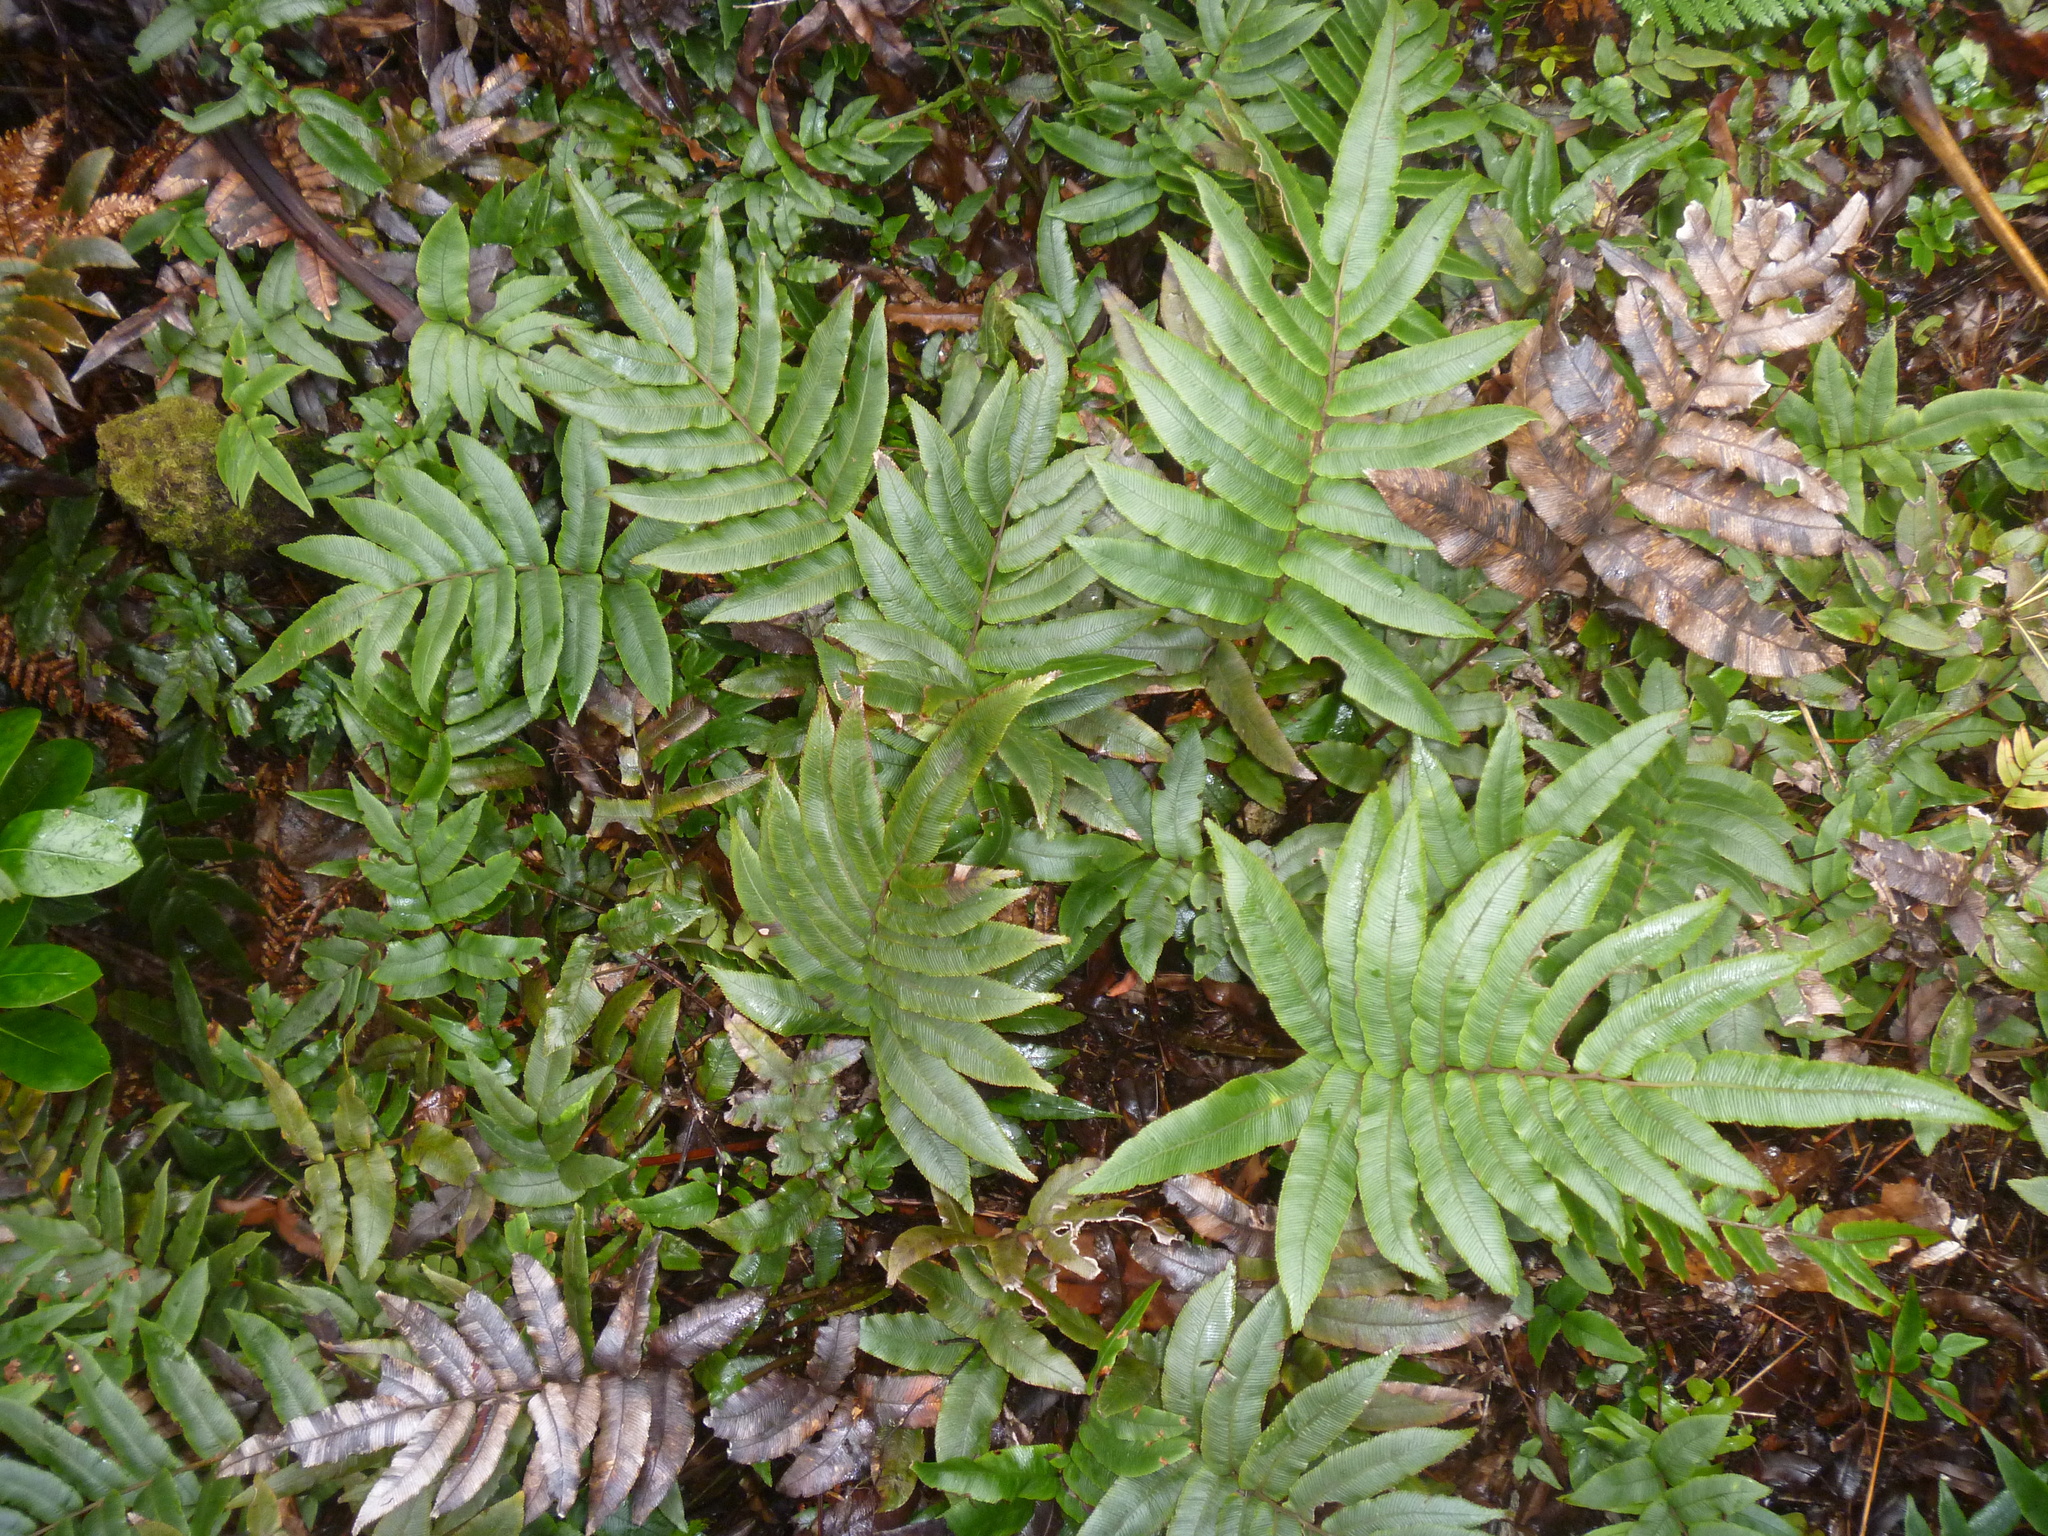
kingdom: Plantae
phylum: Tracheophyta
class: Polypodiopsida
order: Polypodiales
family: Blechnaceae
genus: Parablechnum
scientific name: Parablechnum procerum
